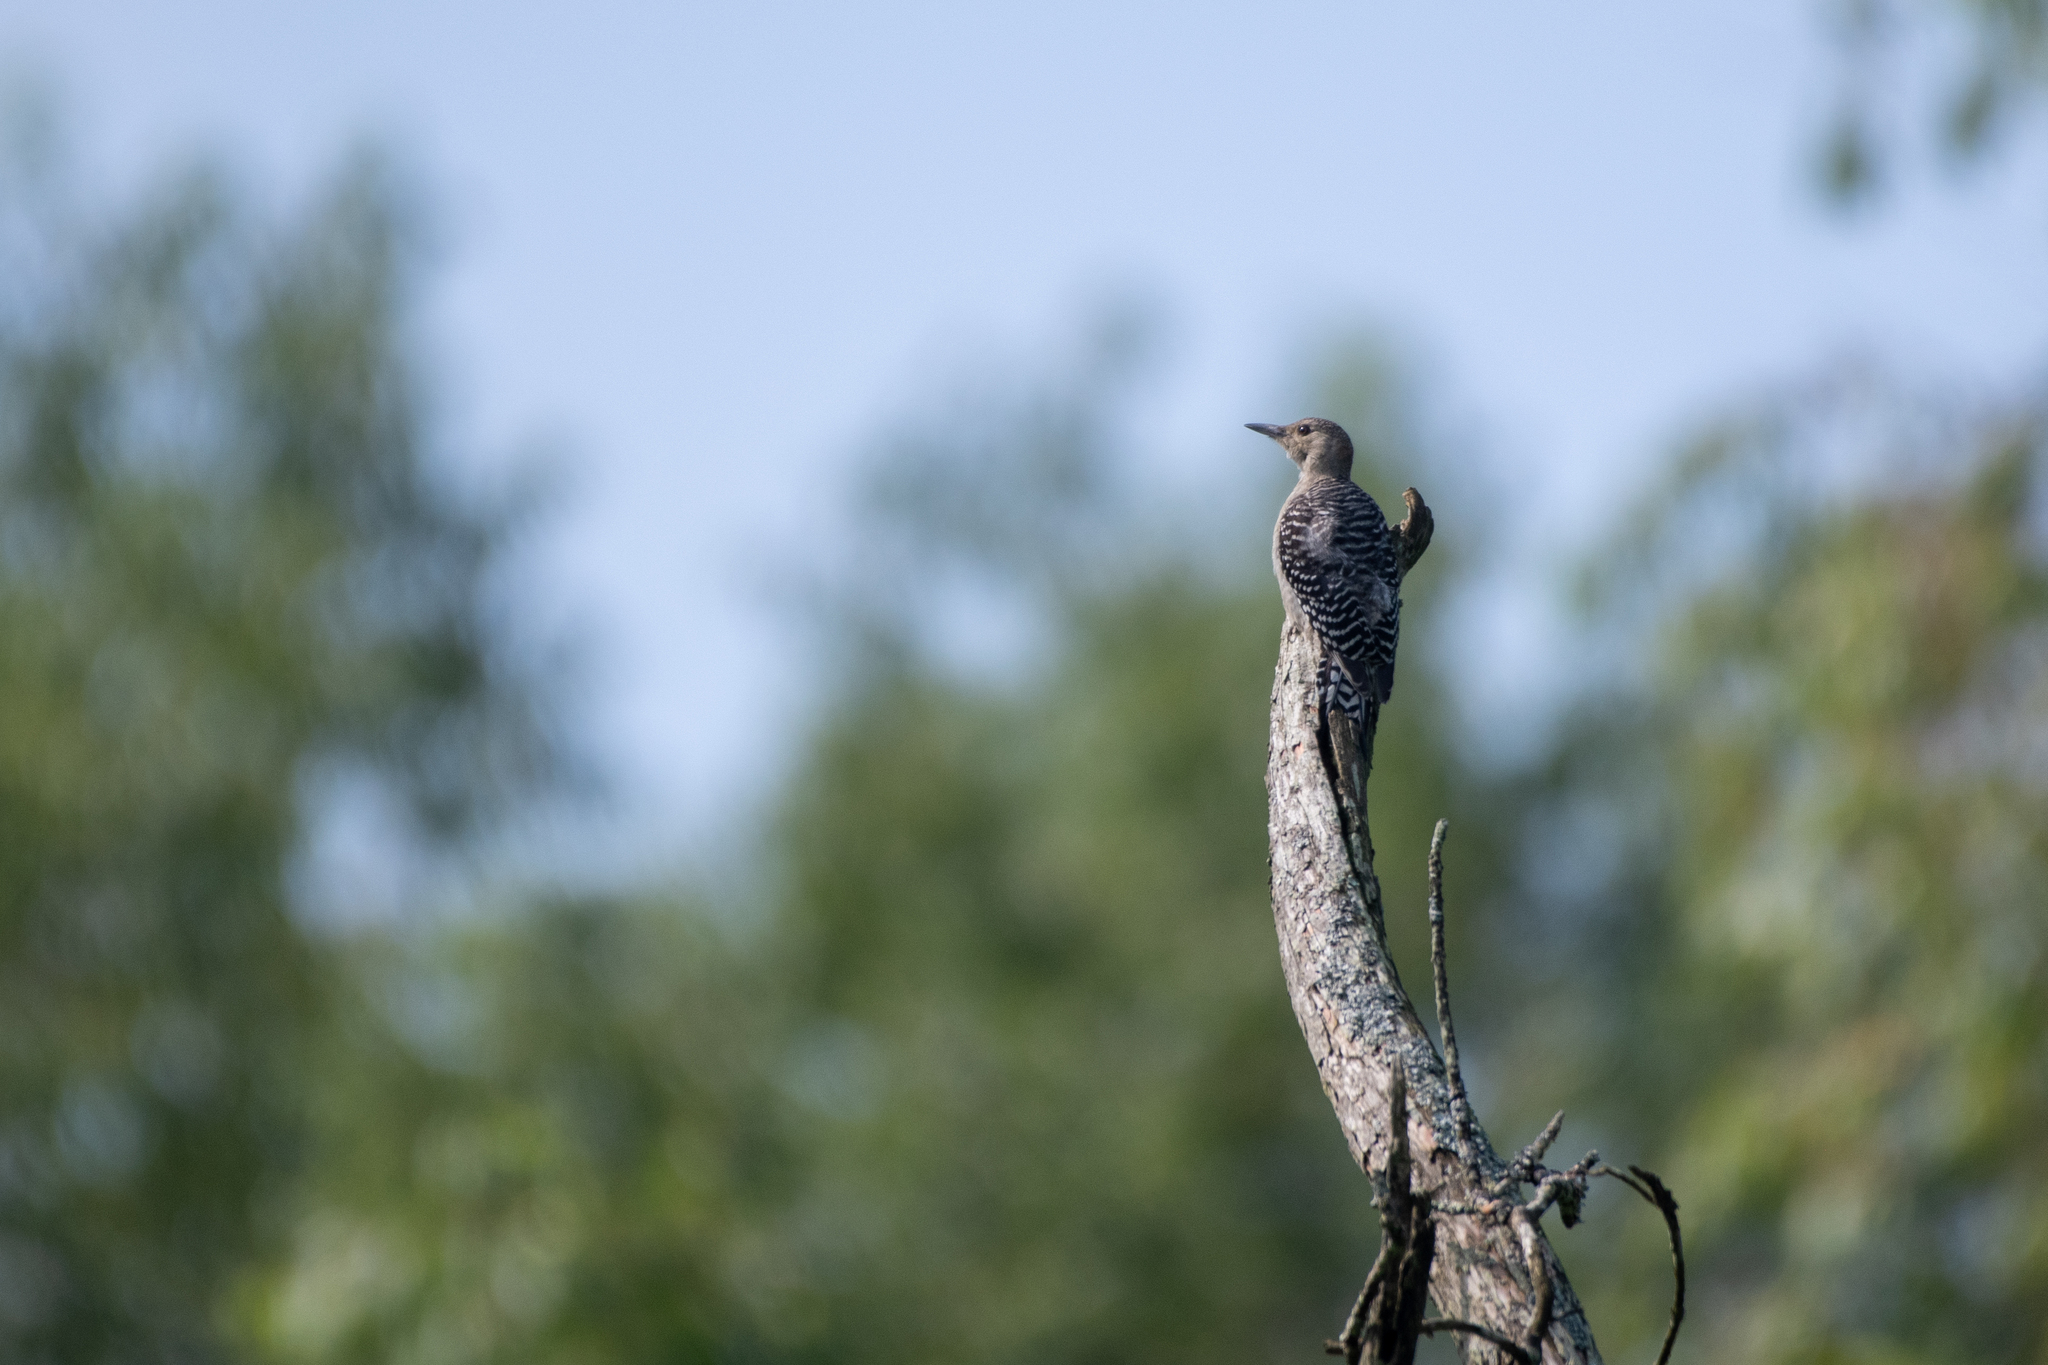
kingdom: Animalia
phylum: Chordata
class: Aves
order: Piciformes
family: Picidae
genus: Melanerpes
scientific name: Melanerpes carolinus
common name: Red-bellied woodpecker
